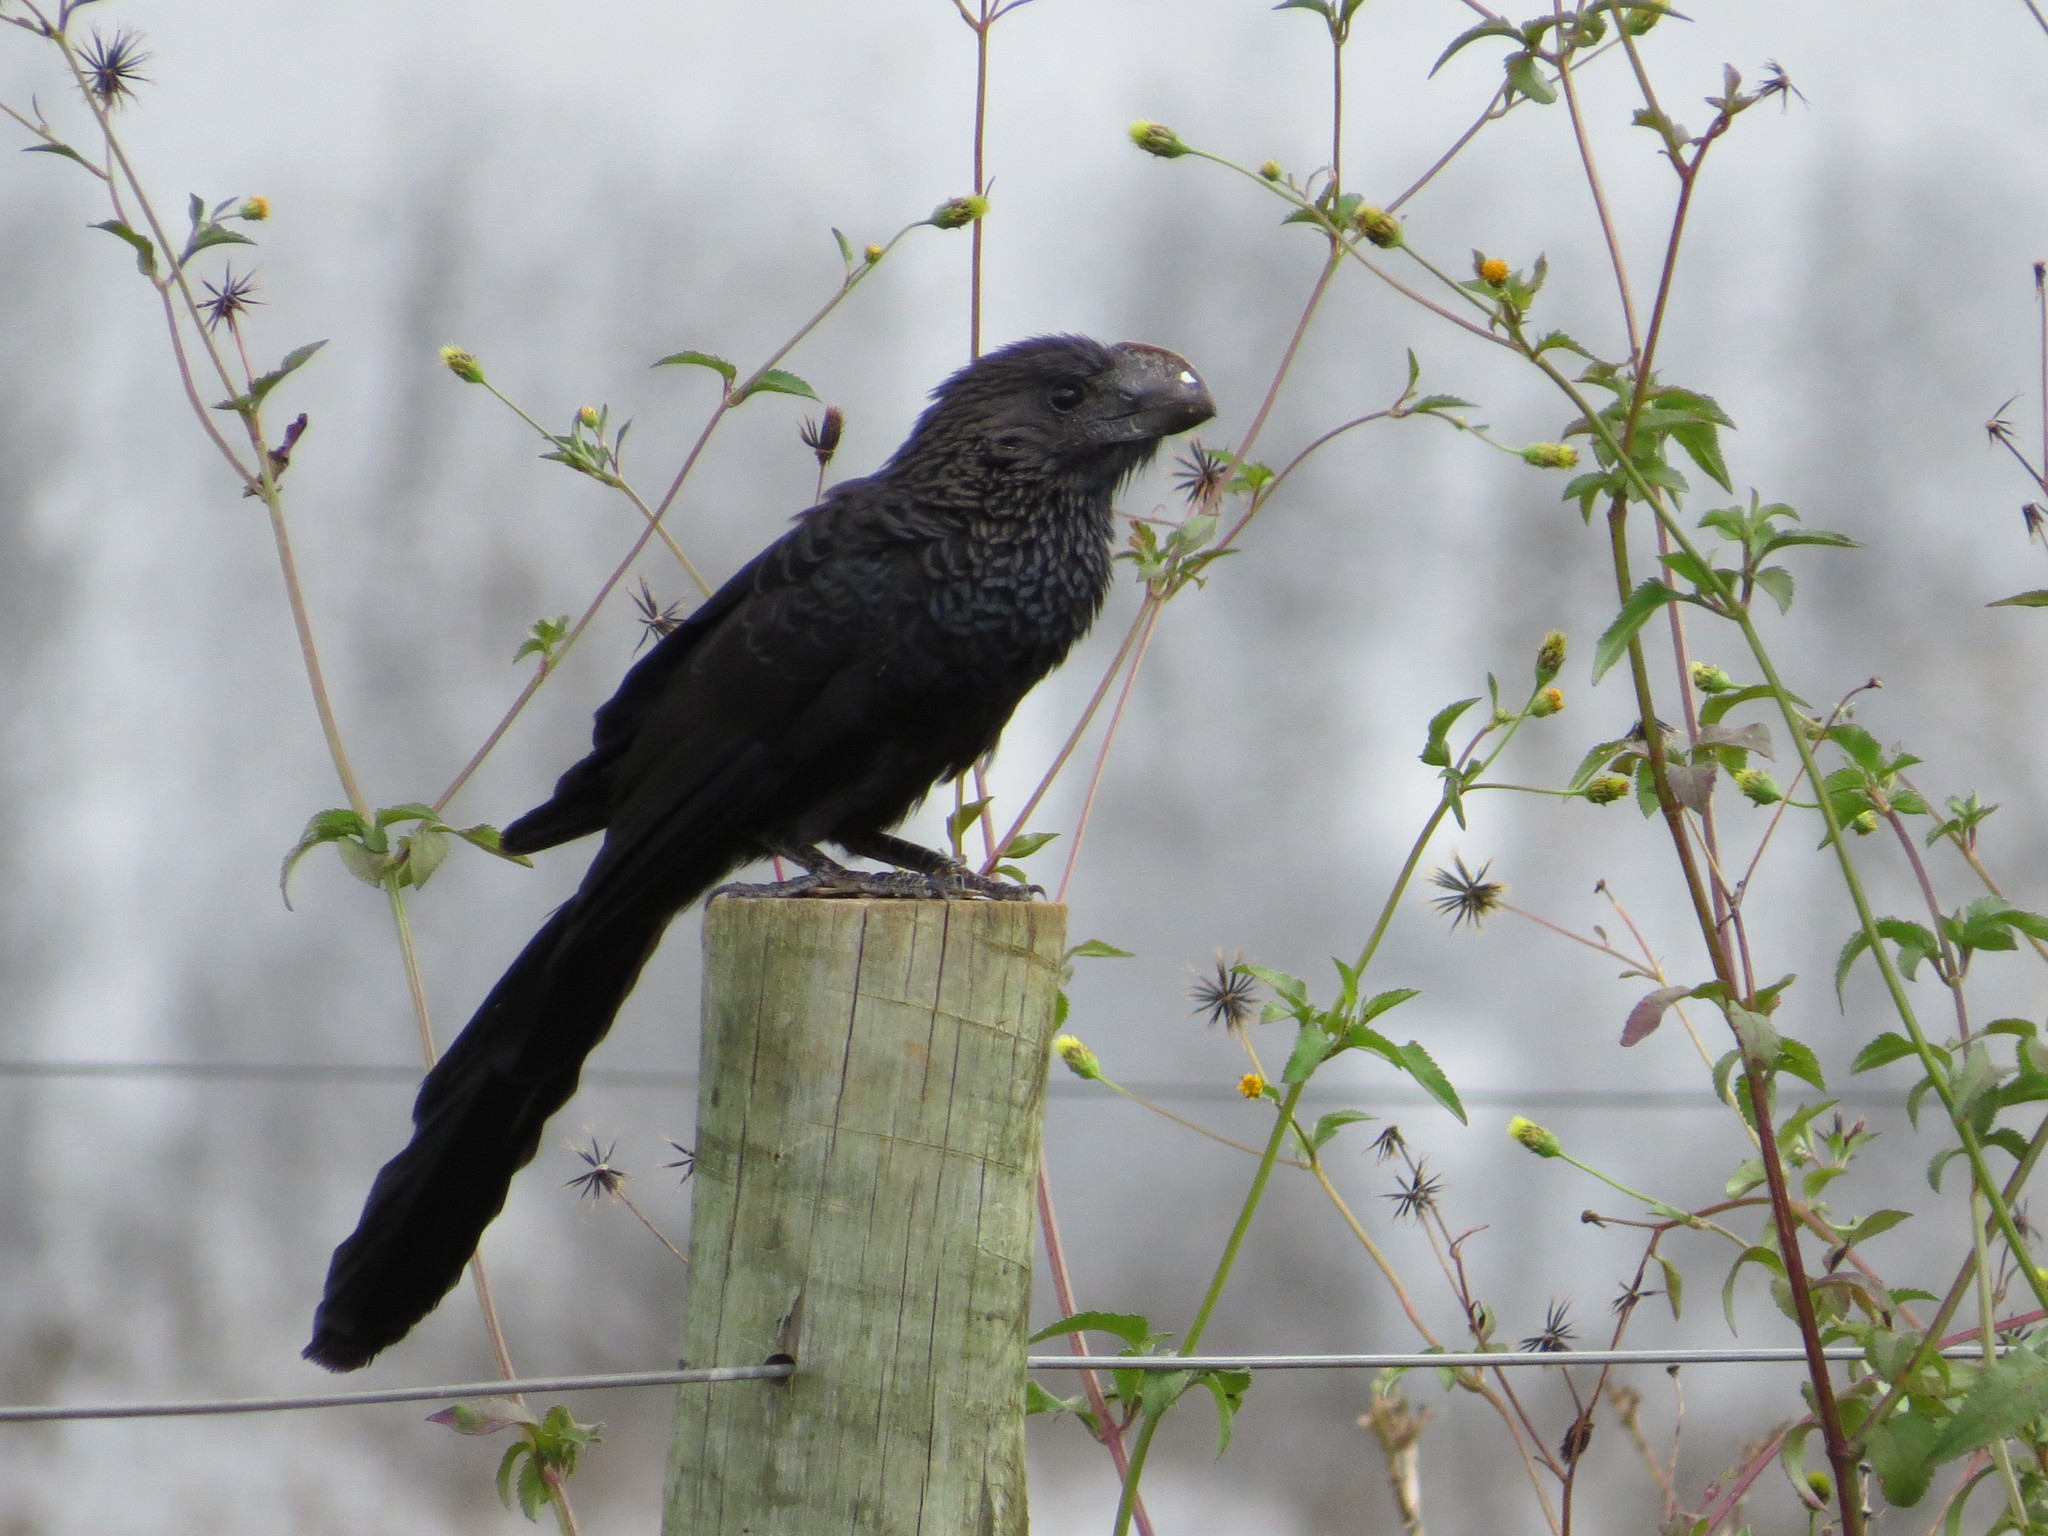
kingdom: Animalia
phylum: Chordata
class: Aves
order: Cuculiformes
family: Cuculidae
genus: Crotophaga
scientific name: Crotophaga ani
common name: Smooth-billed ani
